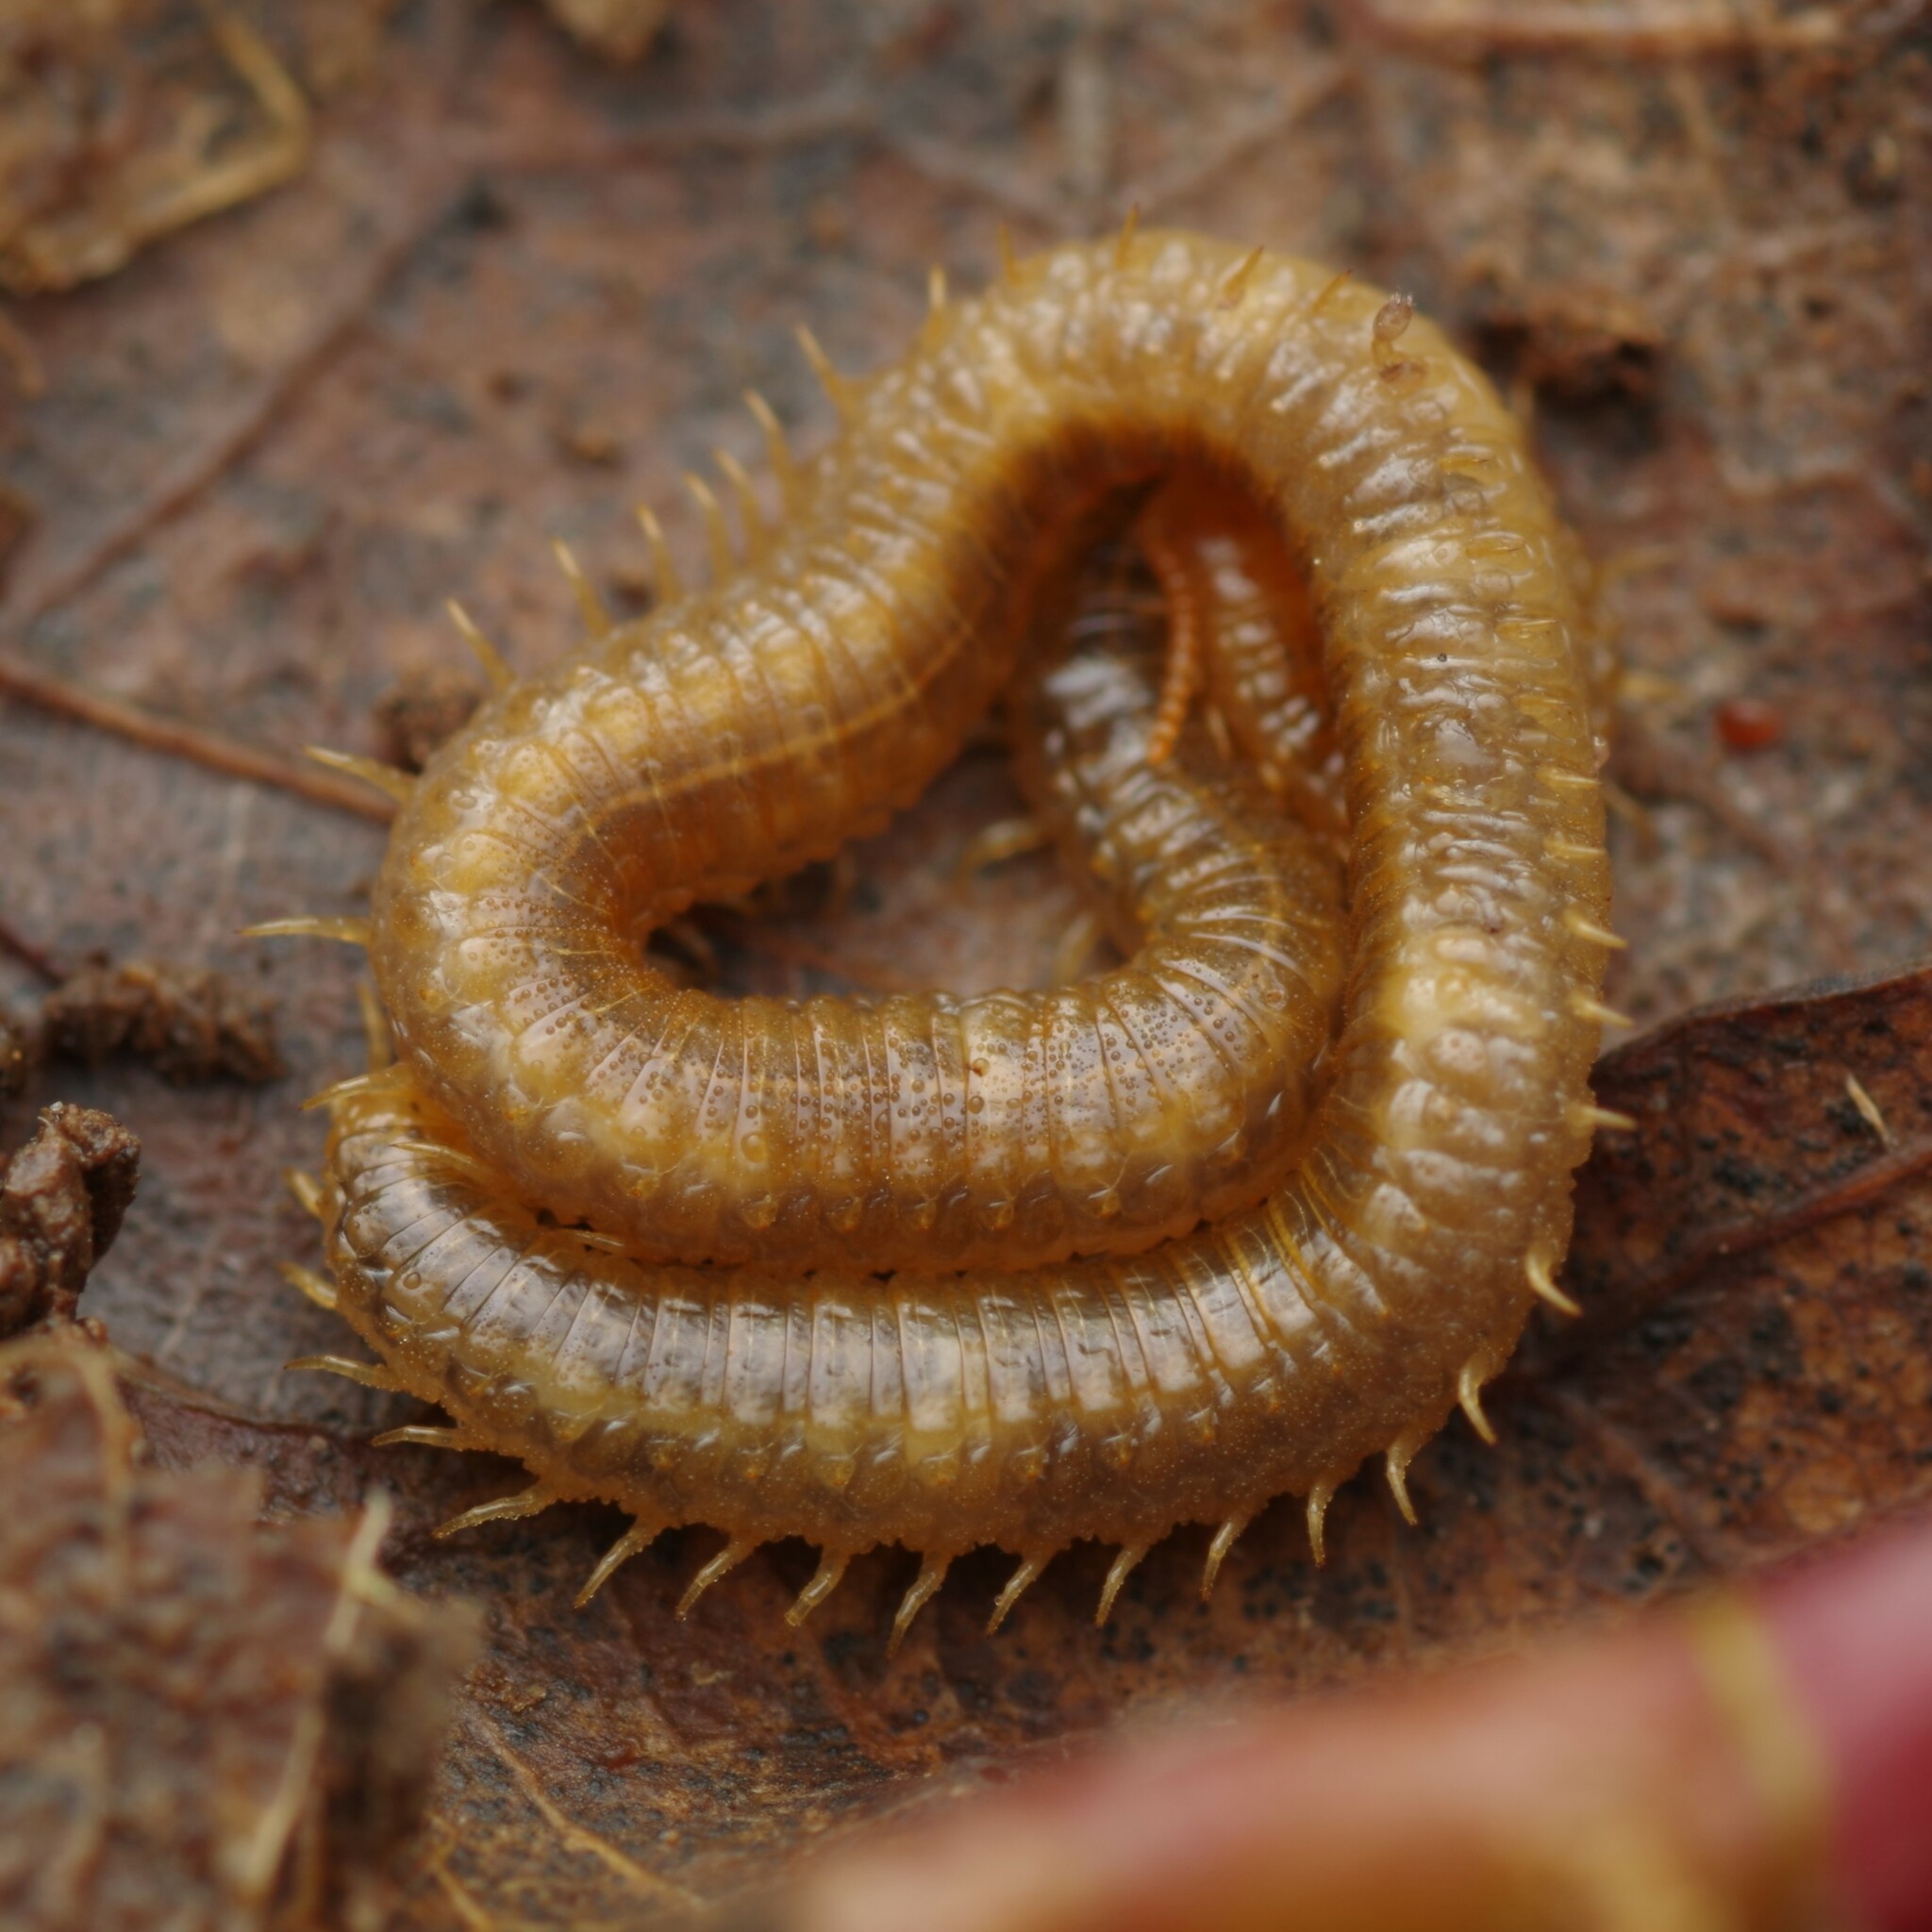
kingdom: Animalia
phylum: Arthropoda
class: Chilopoda
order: Geophilomorpha
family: Dignathodontidae
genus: Henia
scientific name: Henia vesuviana
